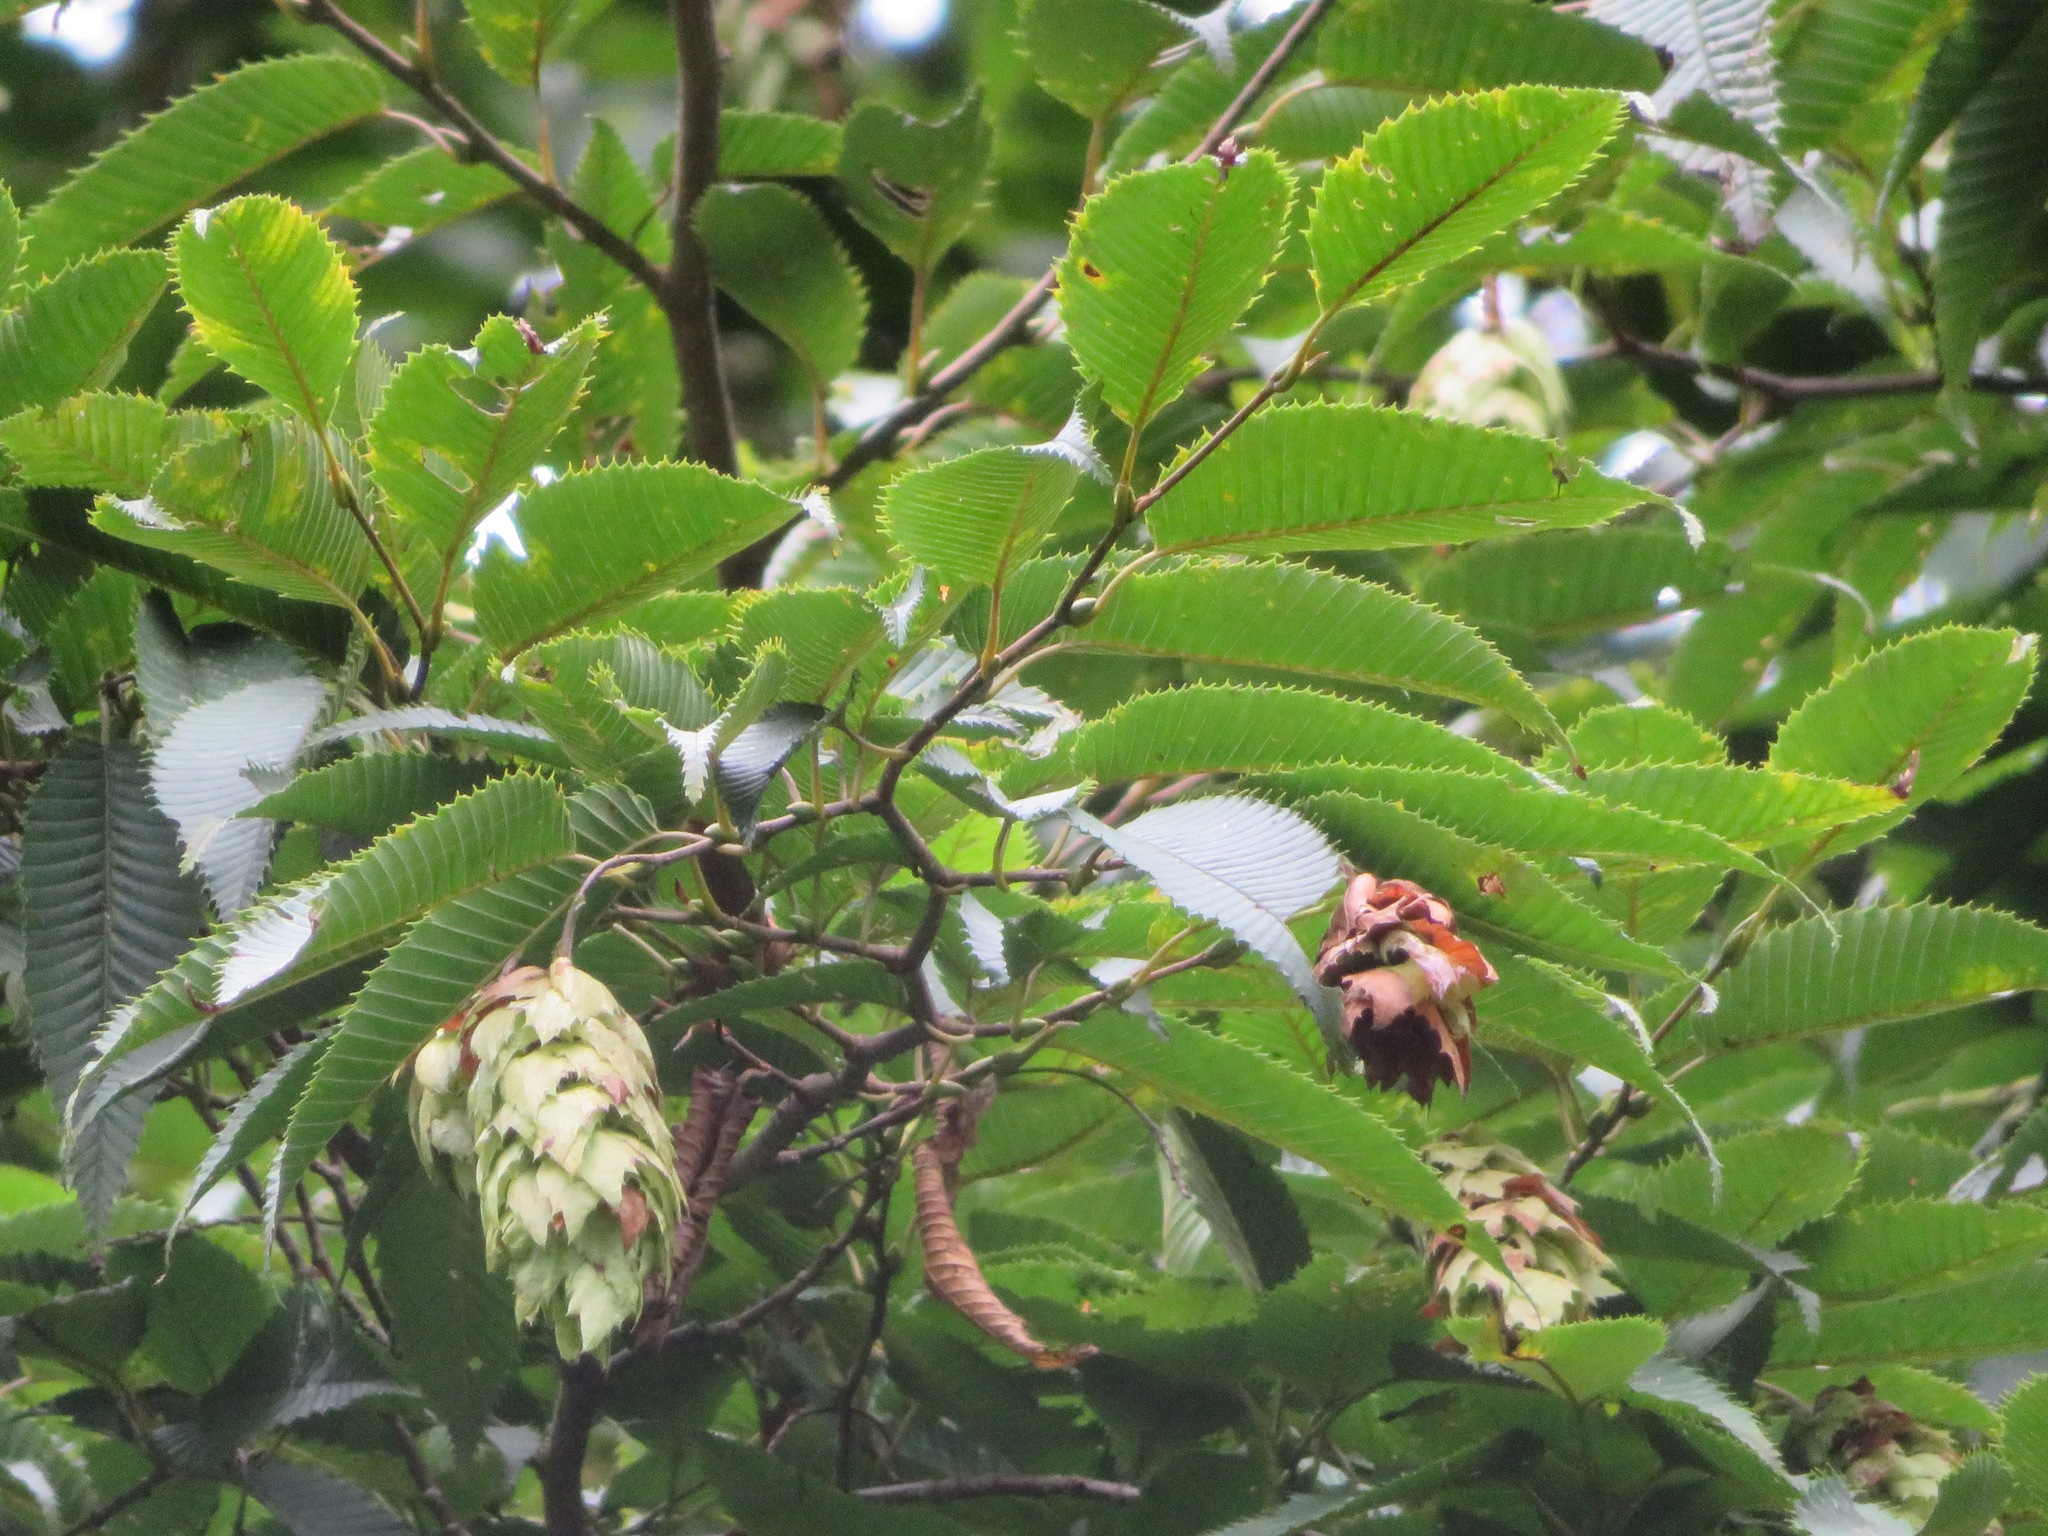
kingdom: Plantae
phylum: Tracheophyta
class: Magnoliopsida
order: Fagales
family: Betulaceae
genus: Carpinus
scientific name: Carpinus japonica
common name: Japanese hornbeam
